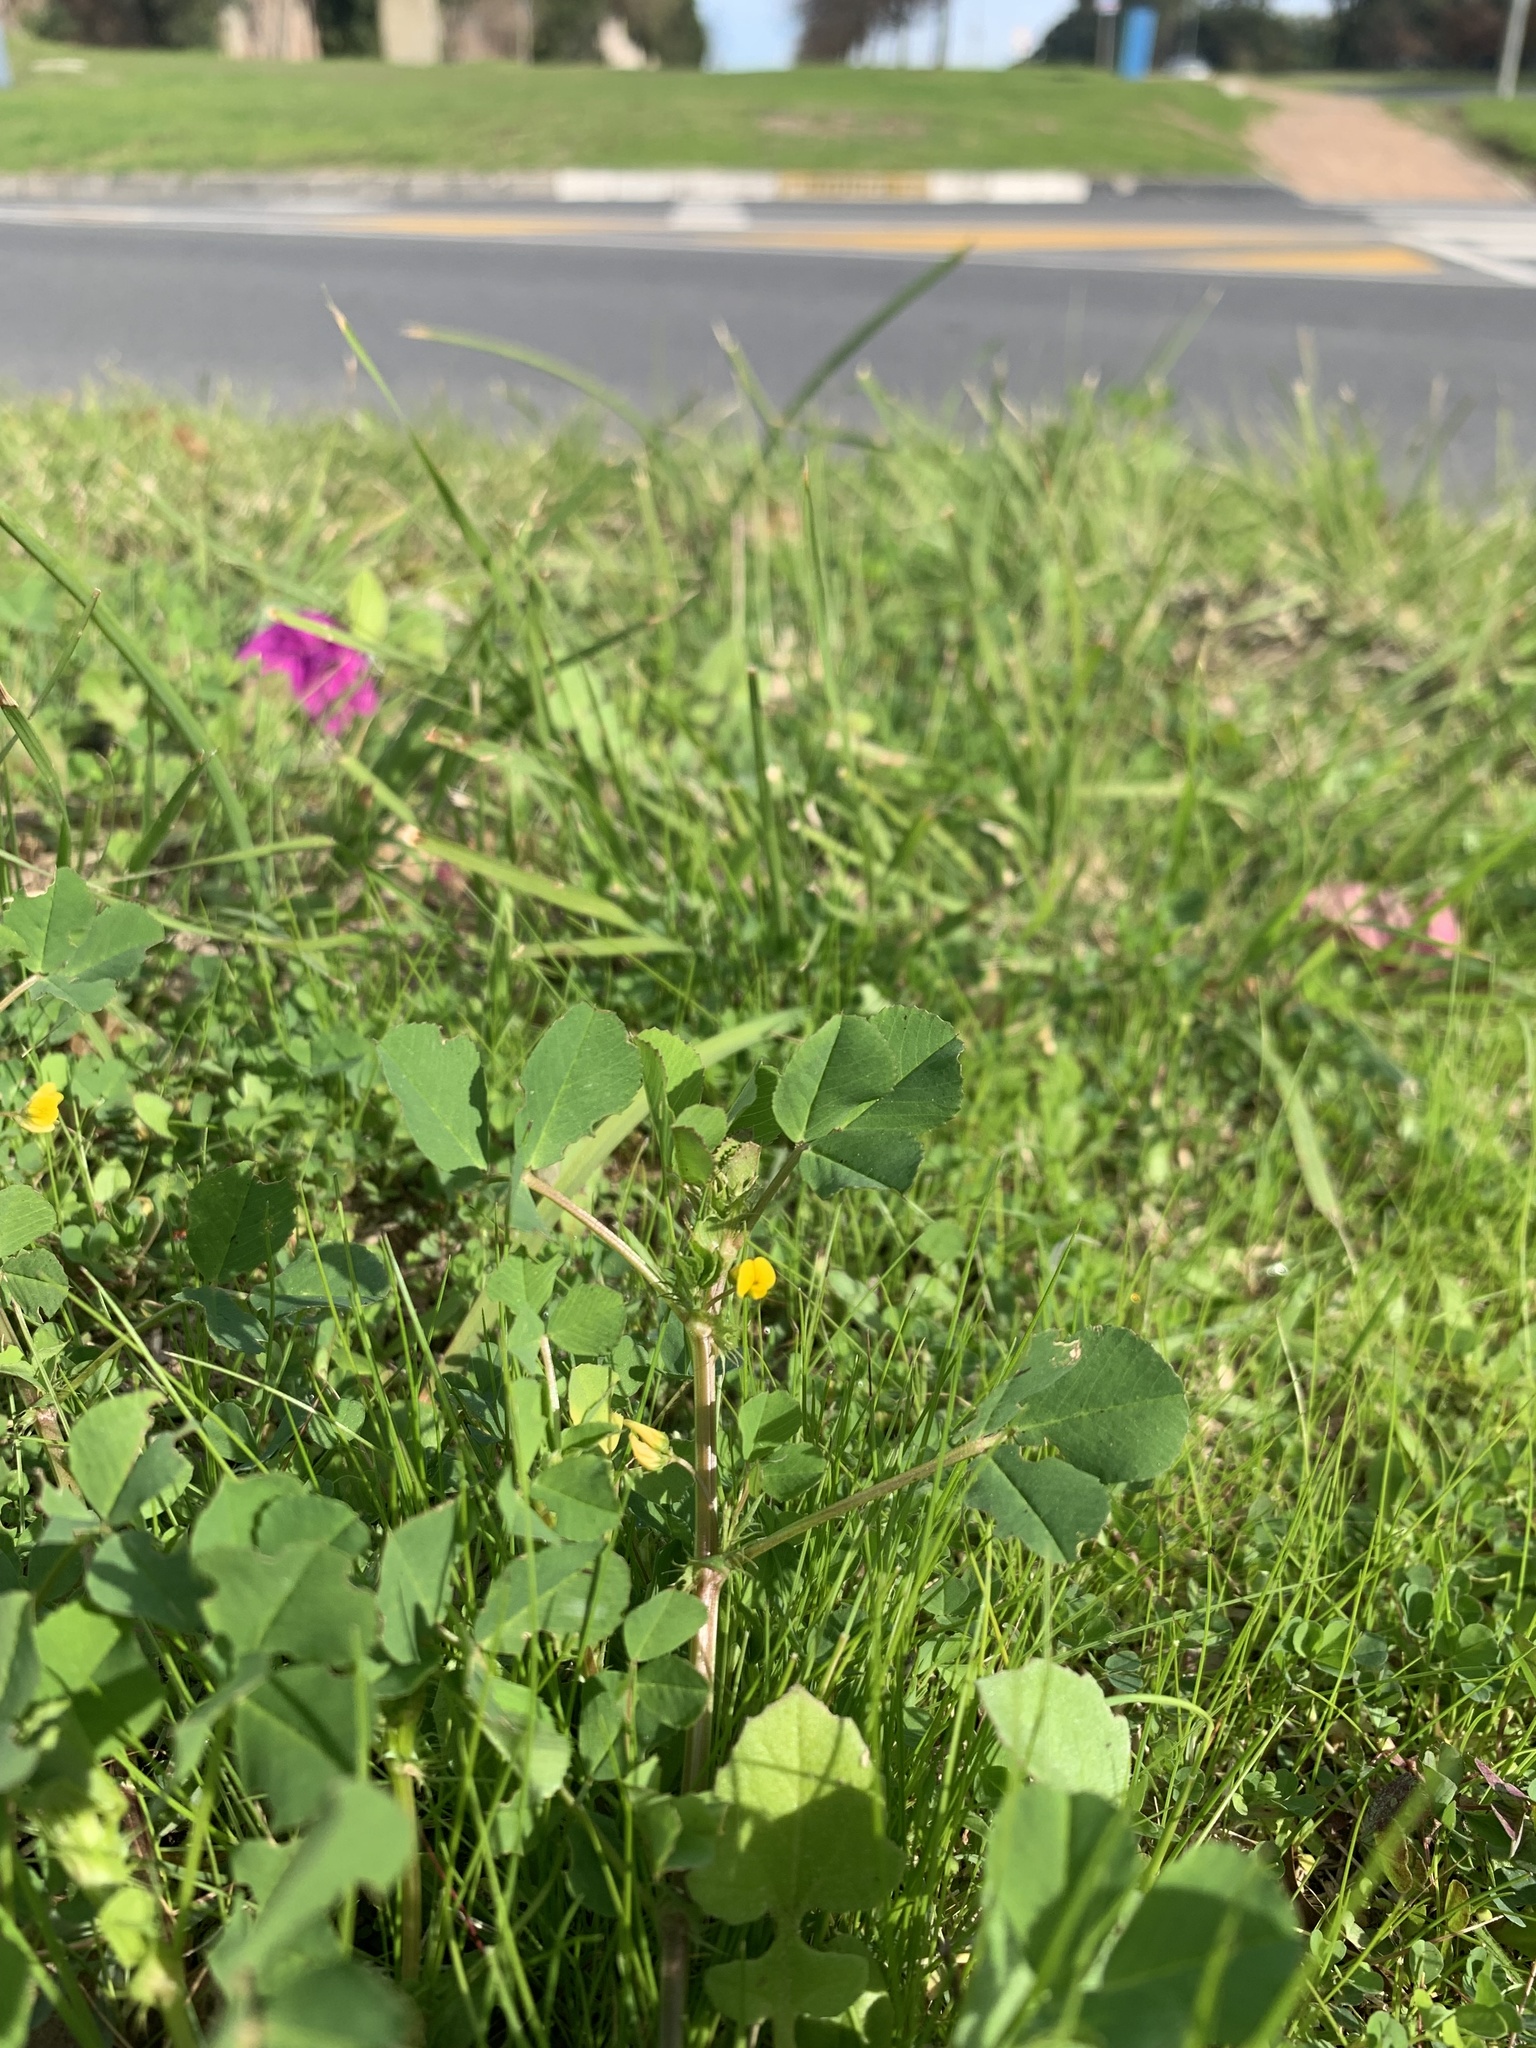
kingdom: Plantae
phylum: Tracheophyta
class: Magnoliopsida
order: Fabales
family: Fabaceae
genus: Medicago
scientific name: Medicago polymorpha
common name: Burclover
